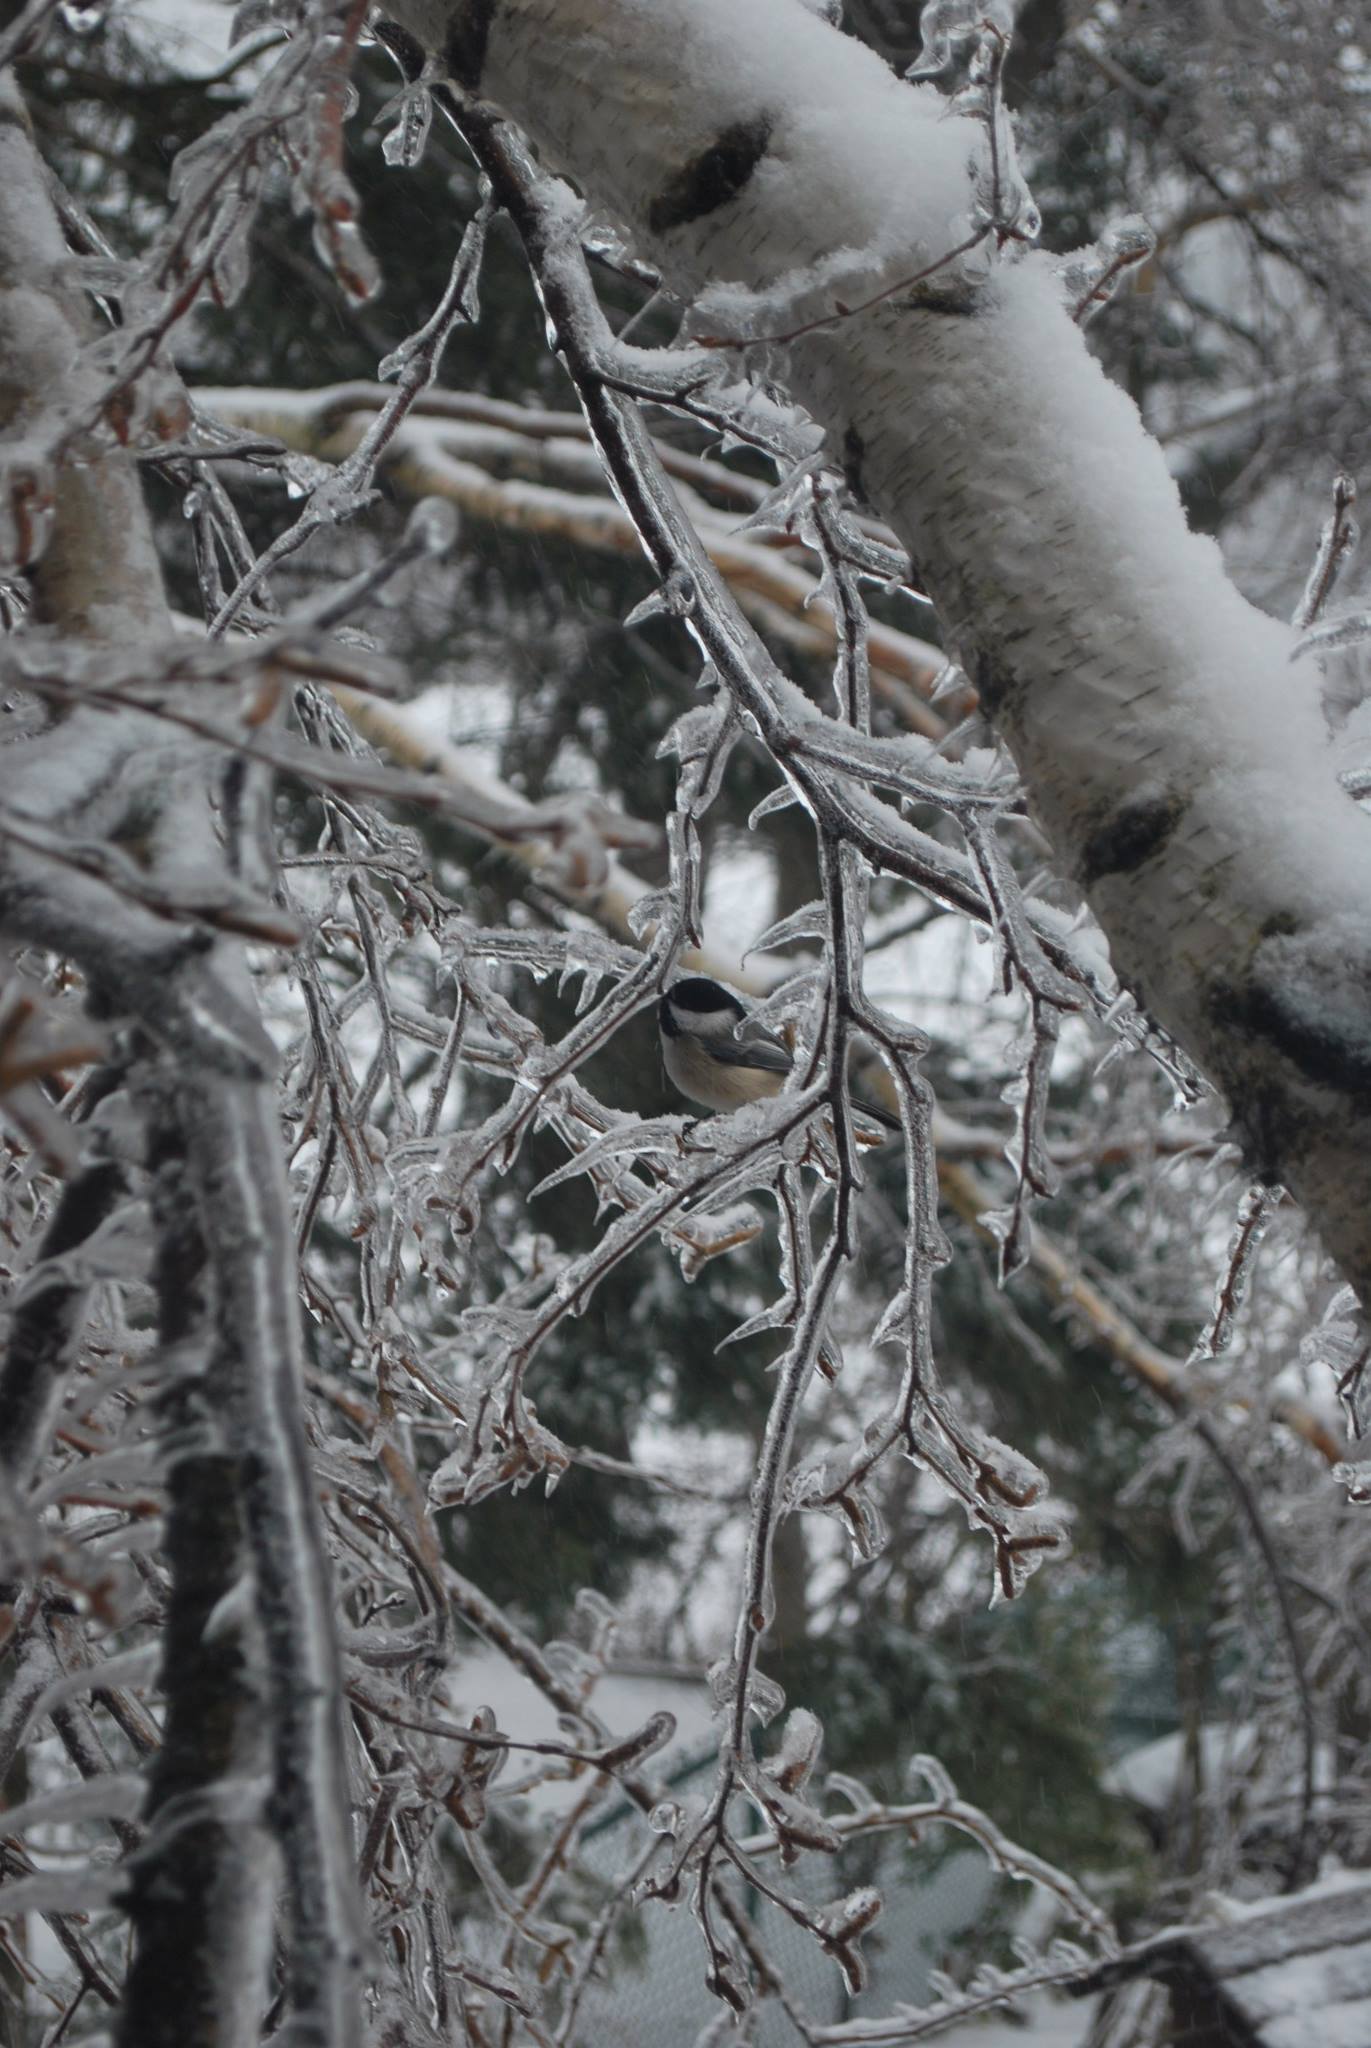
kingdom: Animalia
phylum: Chordata
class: Aves
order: Passeriformes
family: Paridae
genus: Poecile
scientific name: Poecile atricapillus
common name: Black-capped chickadee
